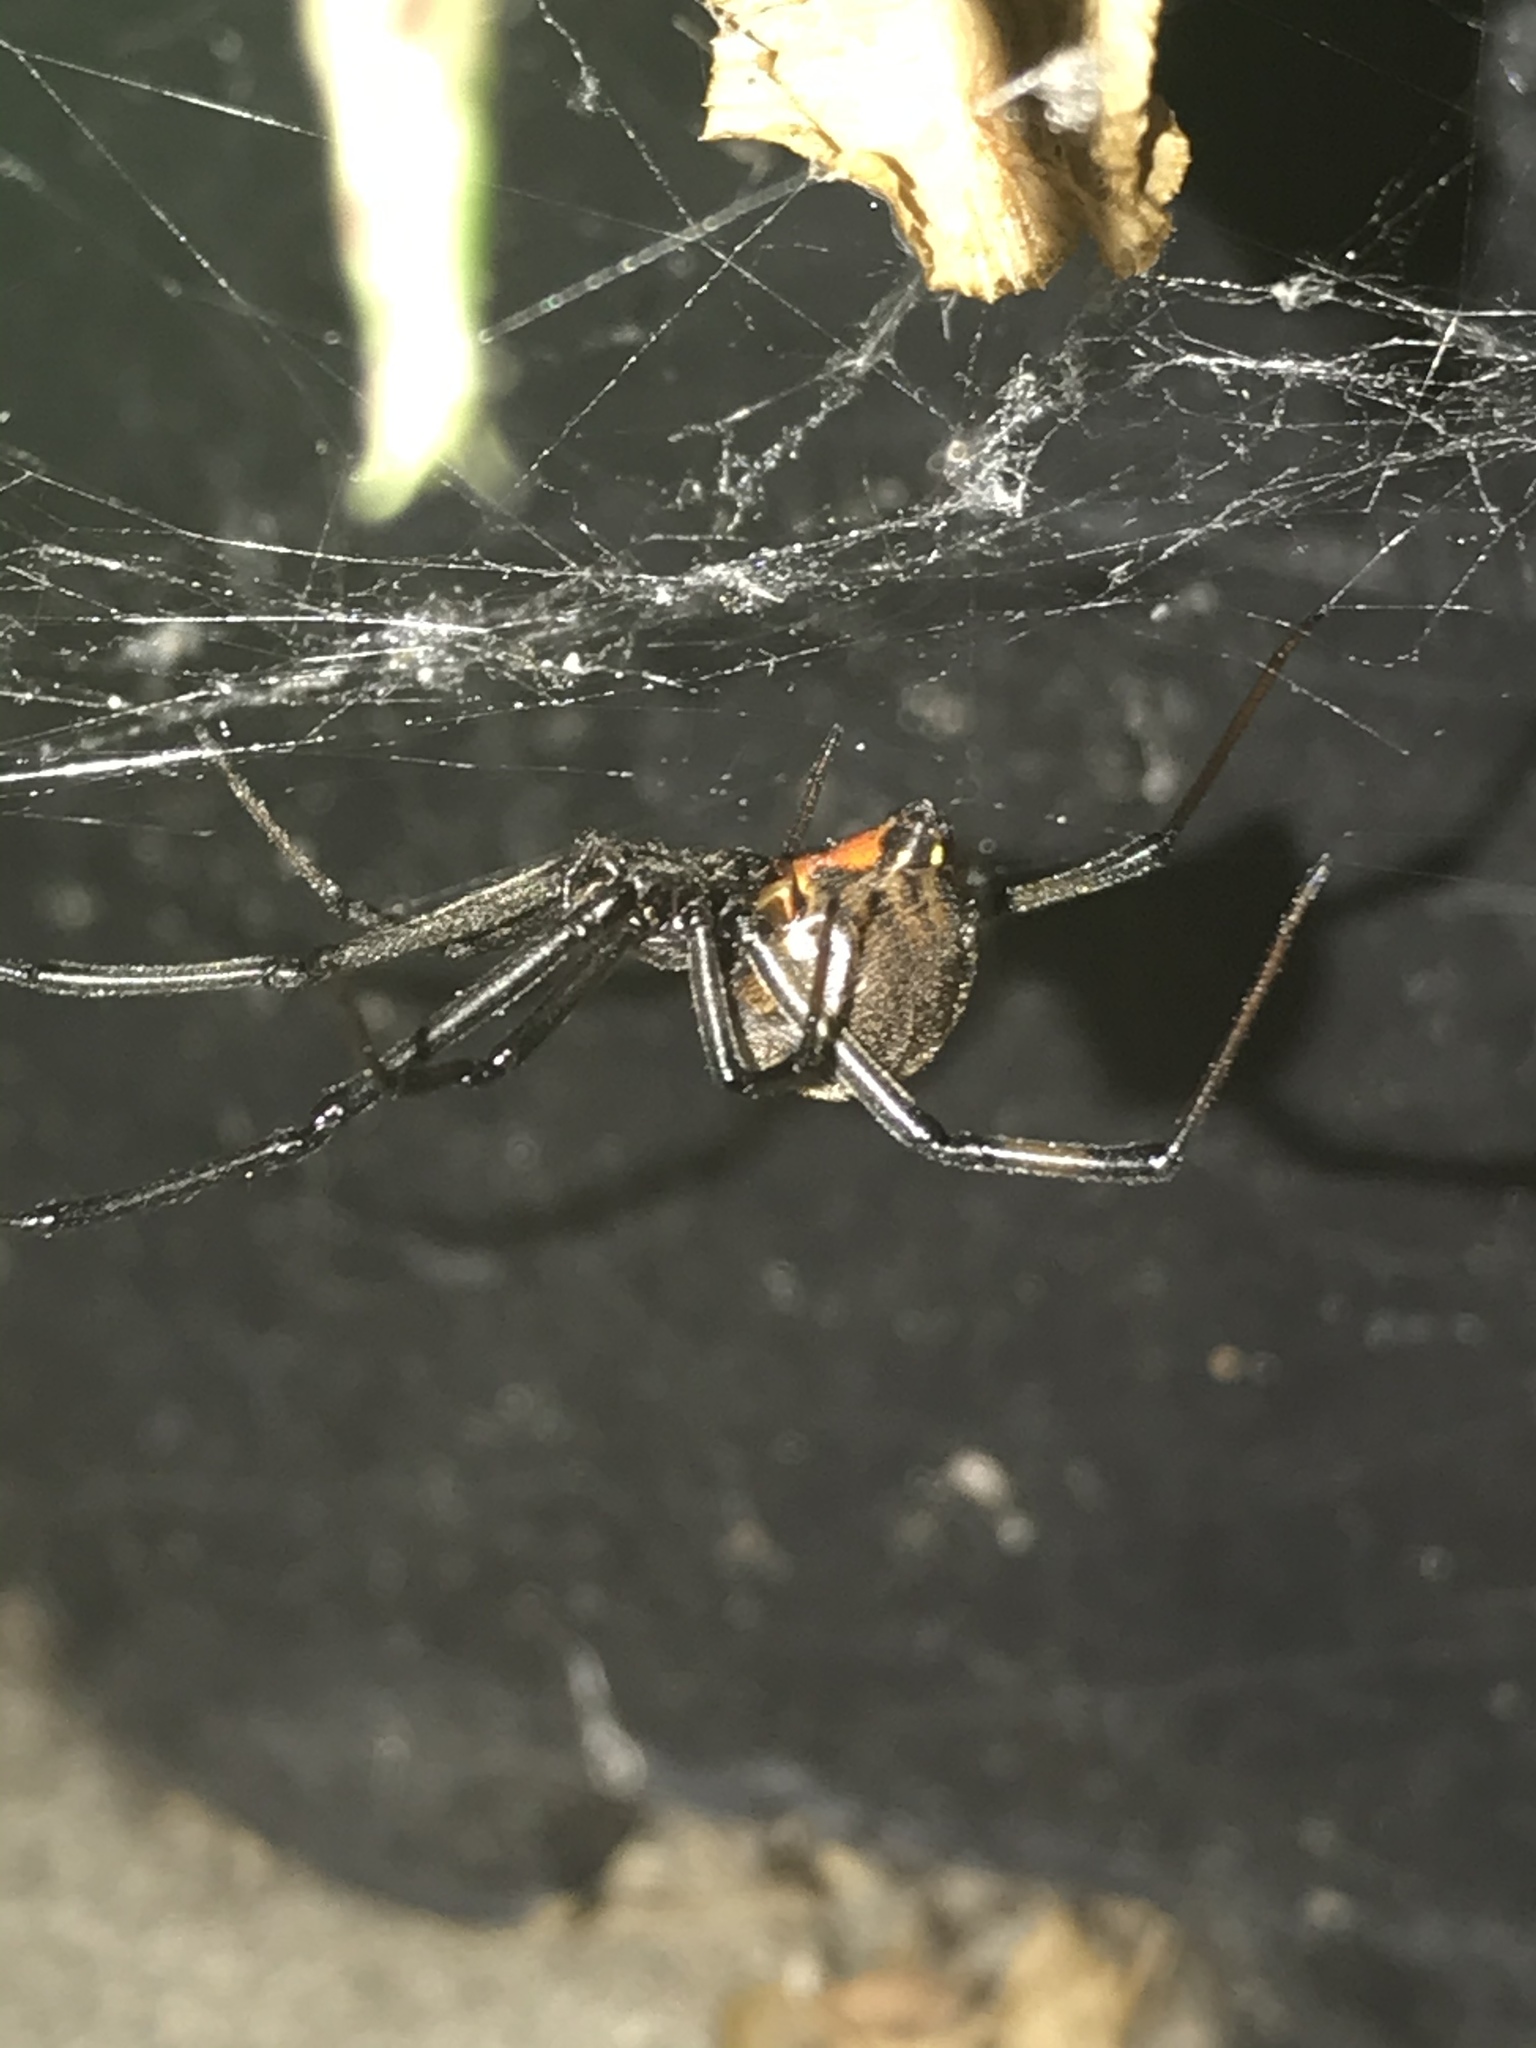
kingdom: Animalia
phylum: Arthropoda
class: Arachnida
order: Araneae
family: Theridiidae
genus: Latrodectus
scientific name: Latrodectus geometricus
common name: Brown widow spider
